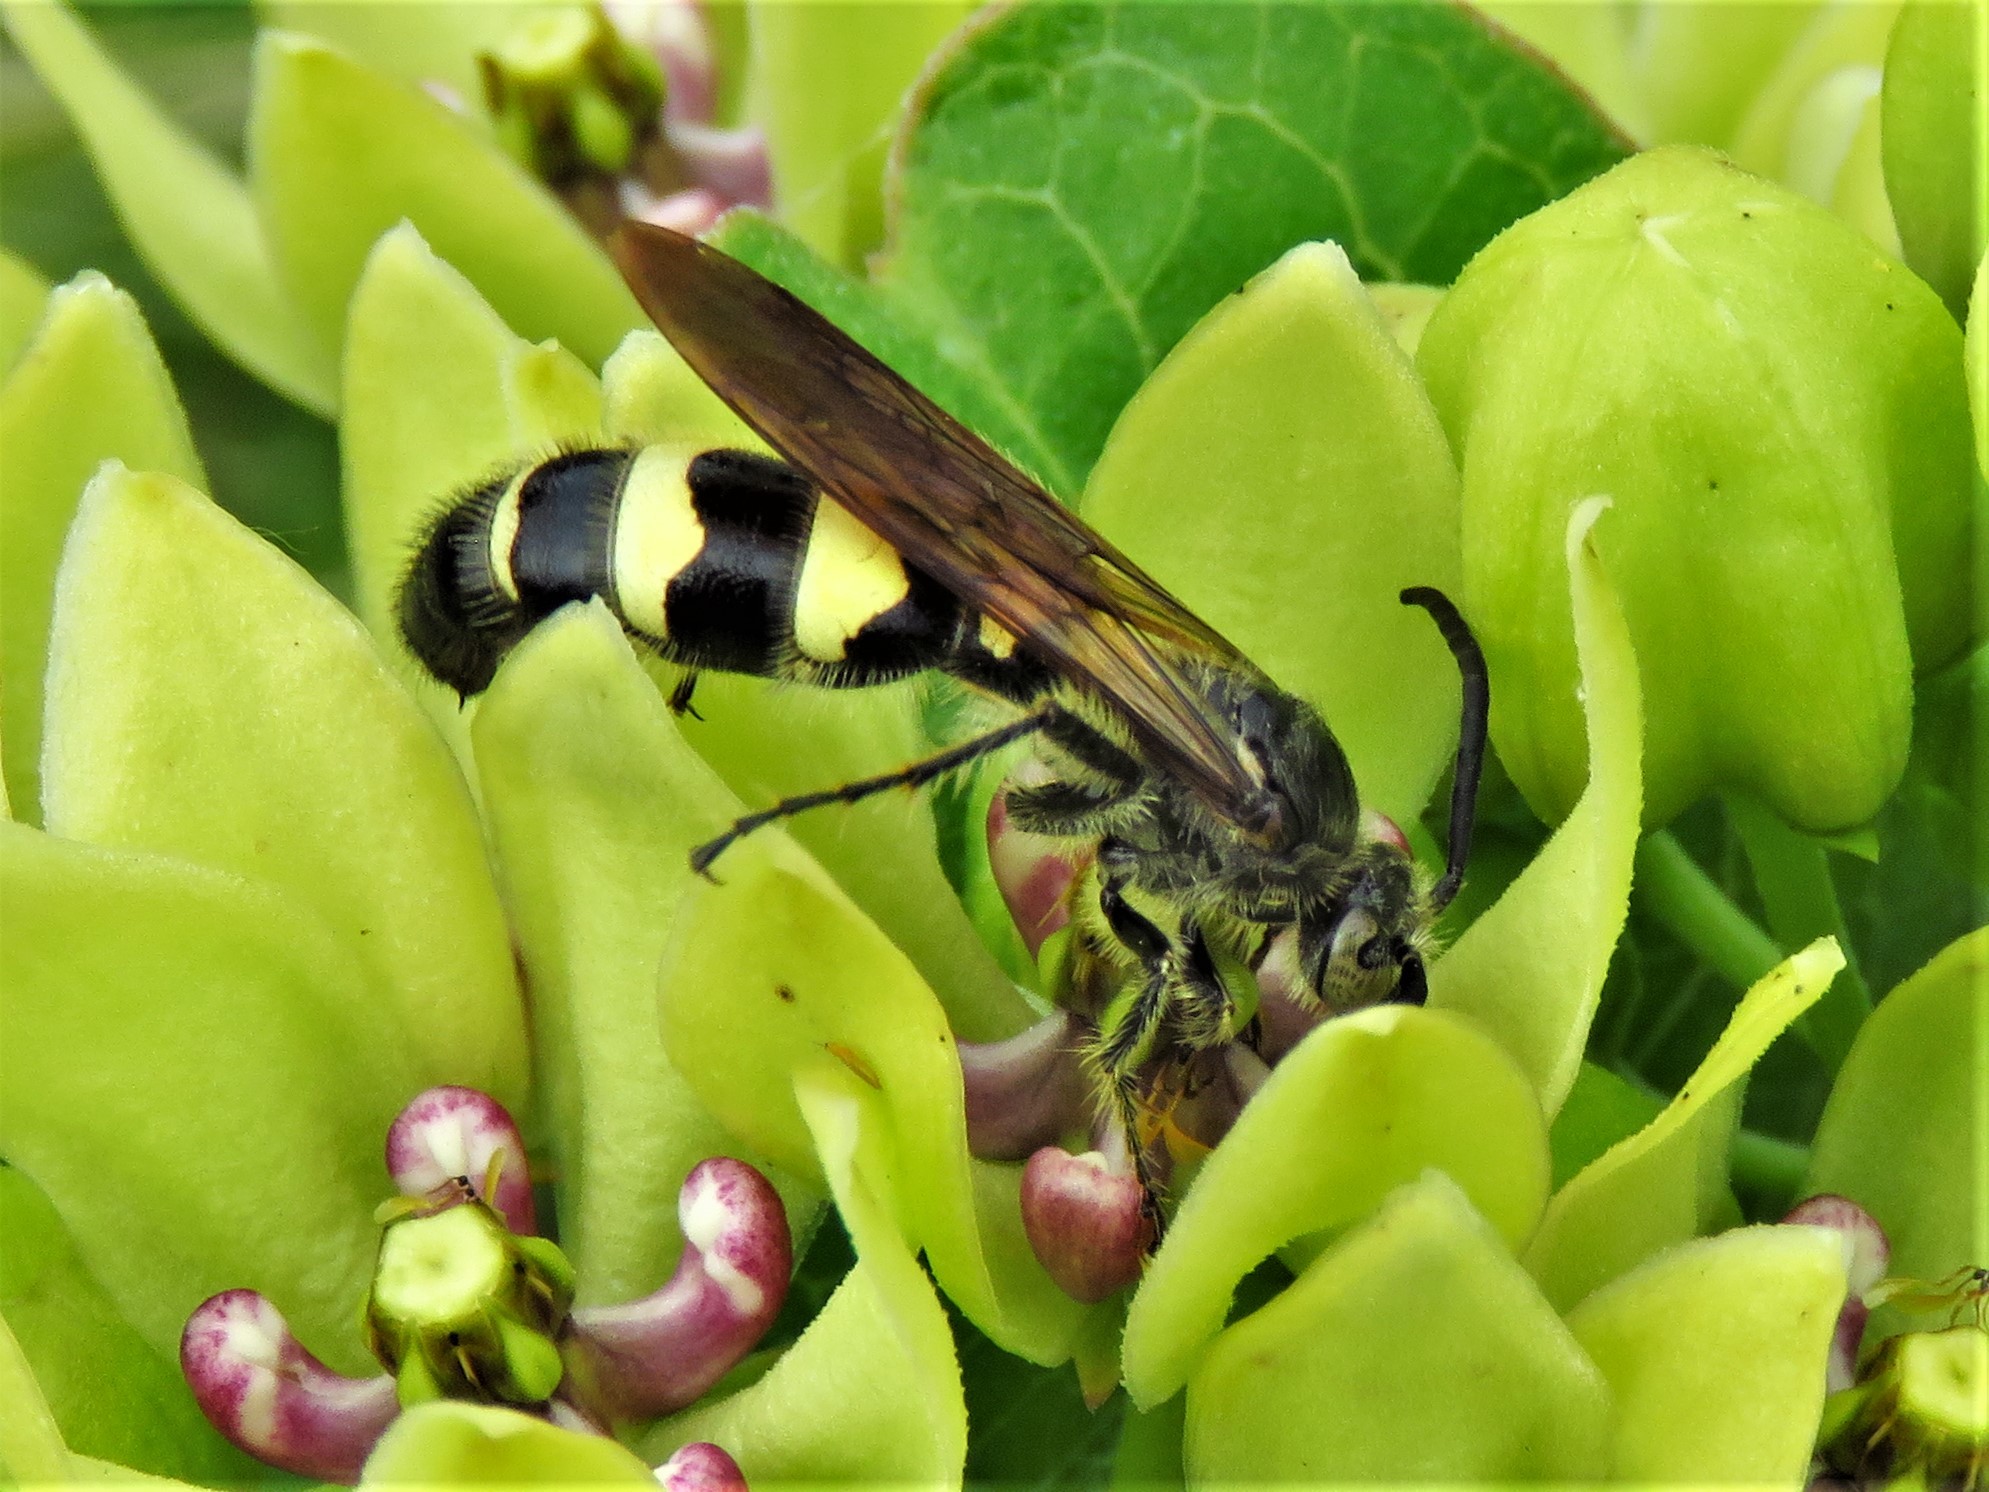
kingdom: Animalia
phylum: Arthropoda
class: Insecta
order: Hymenoptera
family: Scoliidae
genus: Dielis
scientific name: Dielis
